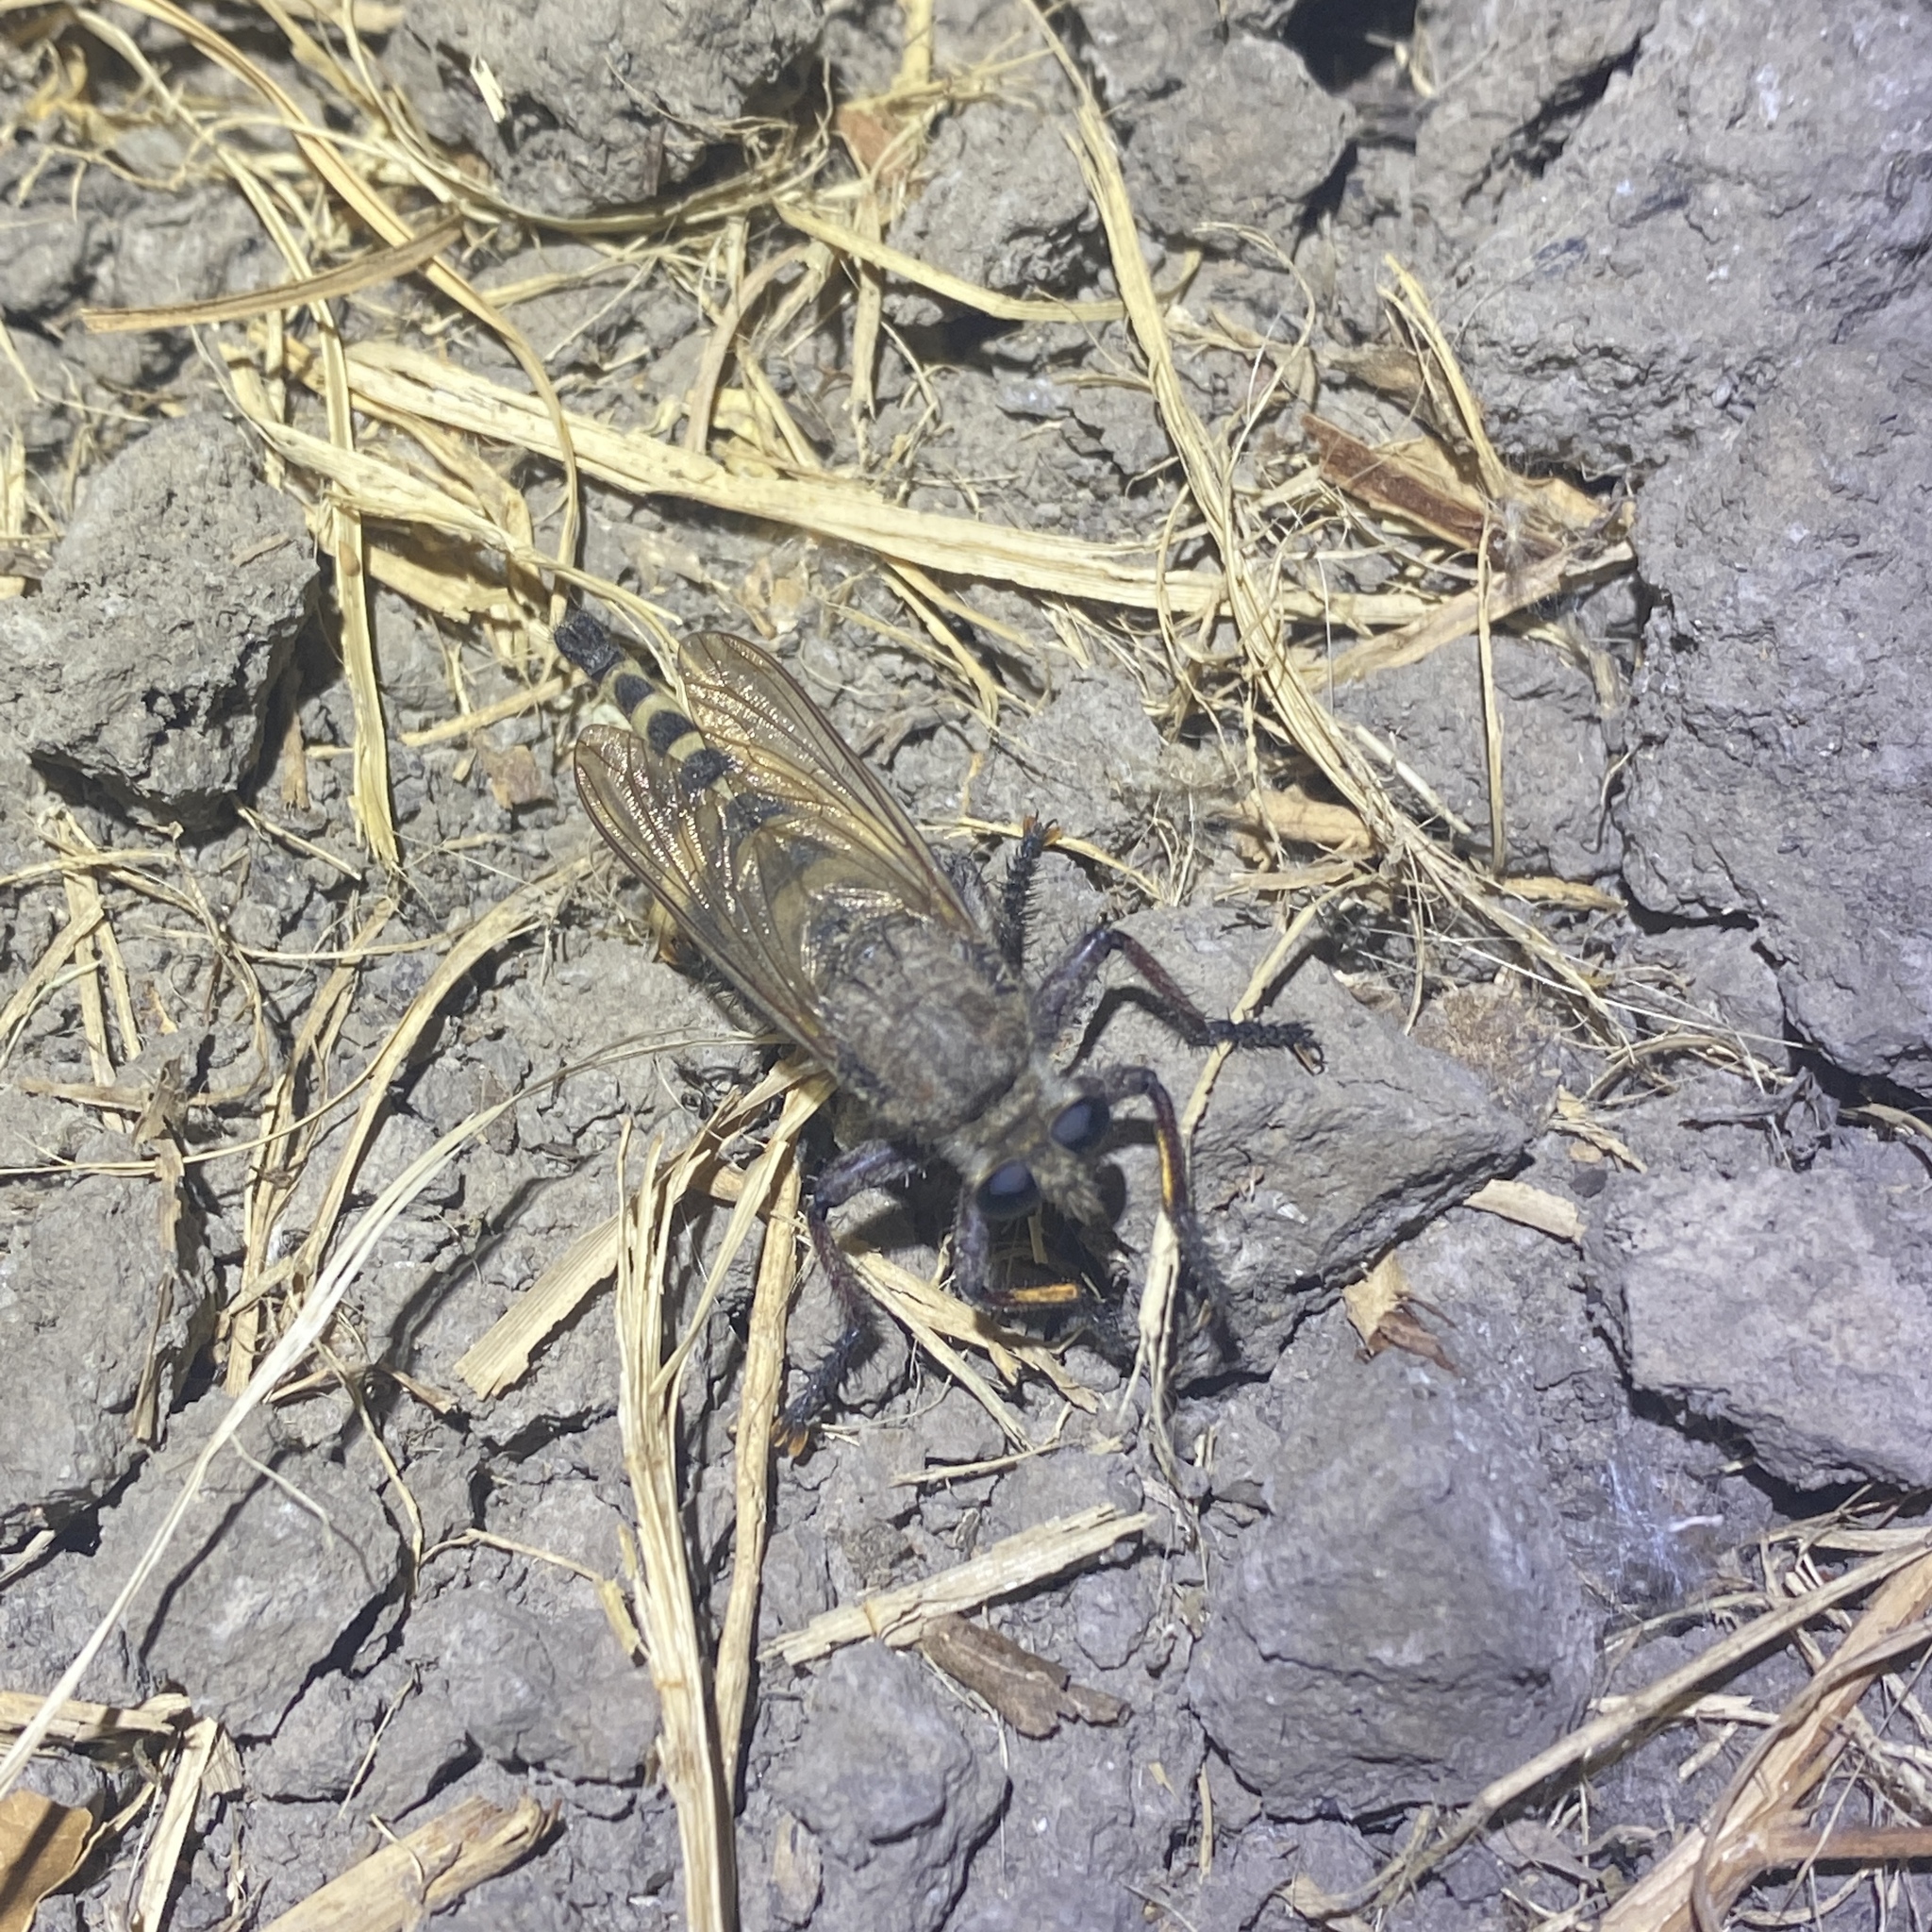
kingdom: Animalia
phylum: Arthropoda
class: Insecta
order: Diptera
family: Asilidae
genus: Promachus
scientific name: Promachus hinei
